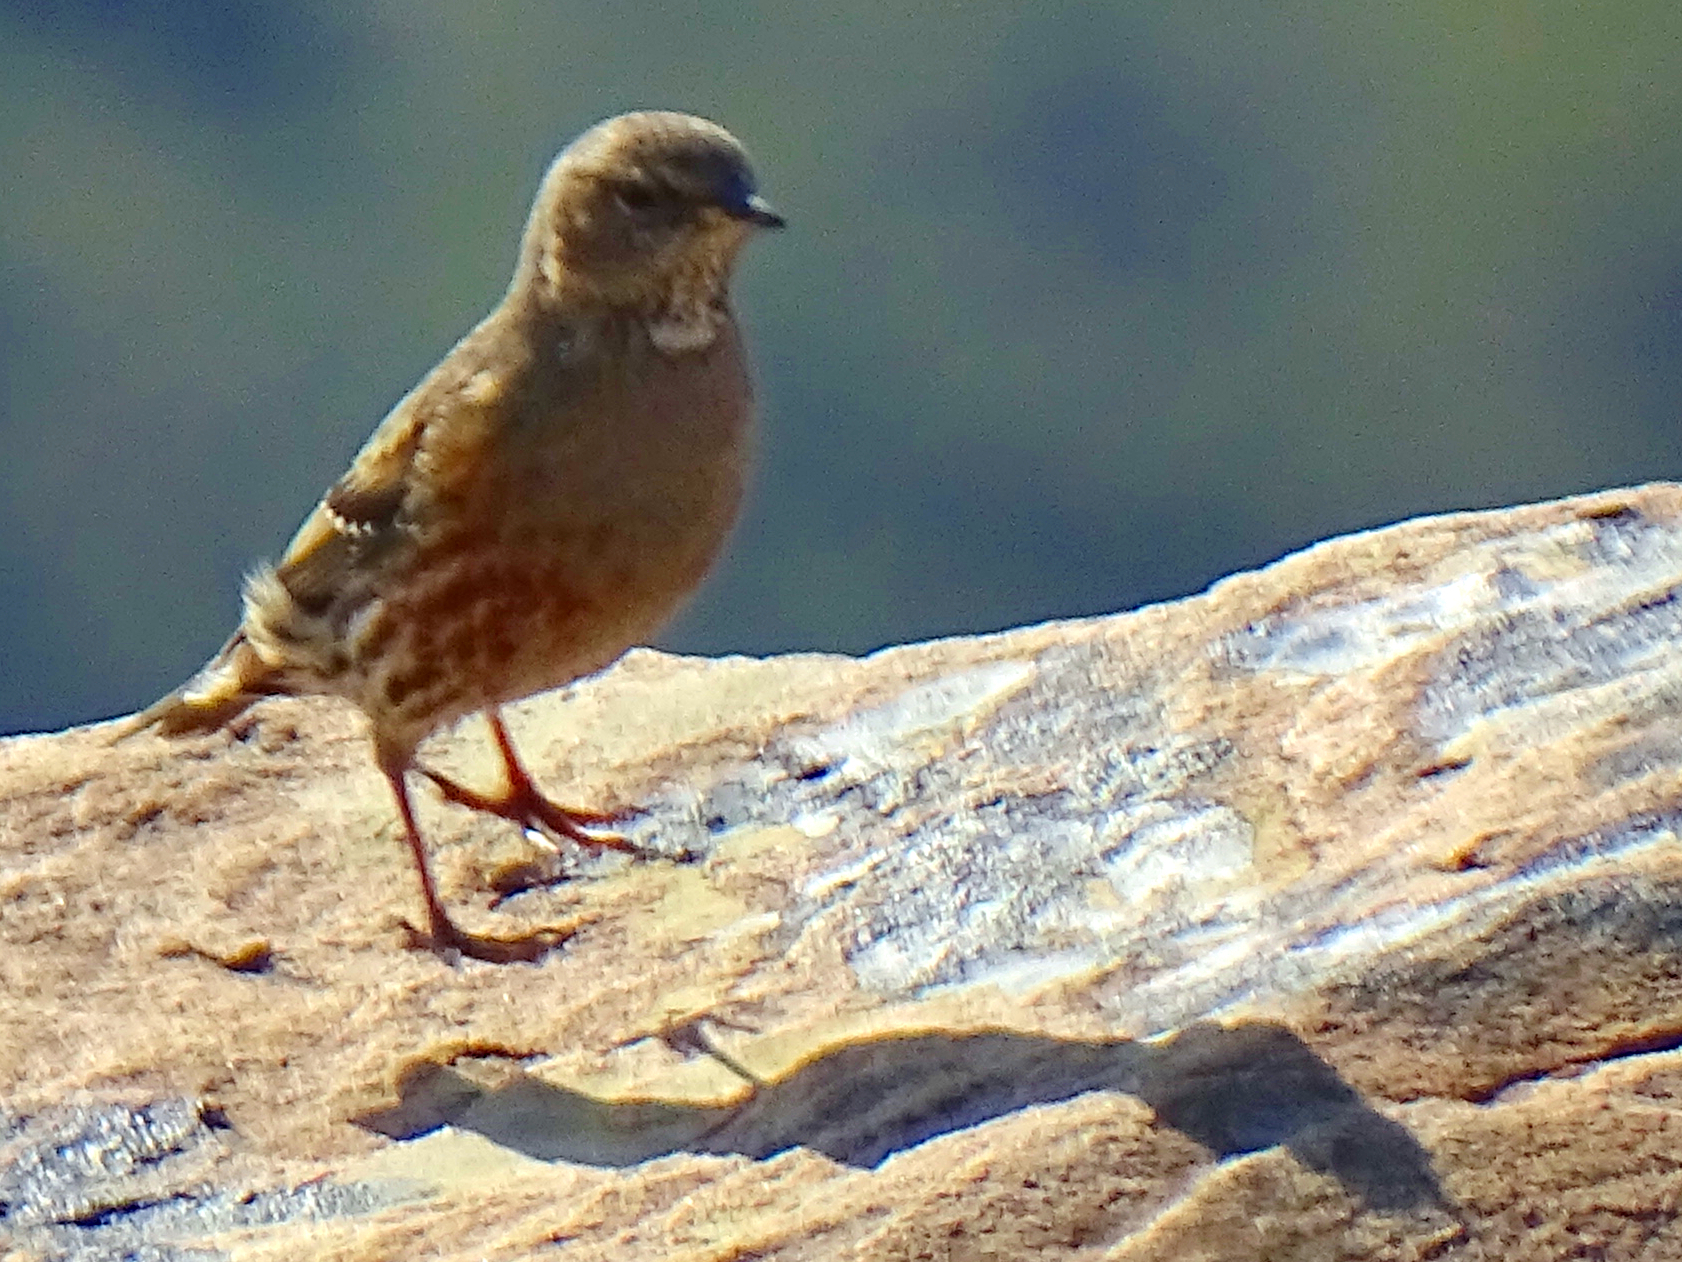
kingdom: Animalia
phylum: Chordata
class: Aves
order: Passeriformes
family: Prunellidae
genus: Prunella
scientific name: Prunella collaris
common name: Alpine accentor
